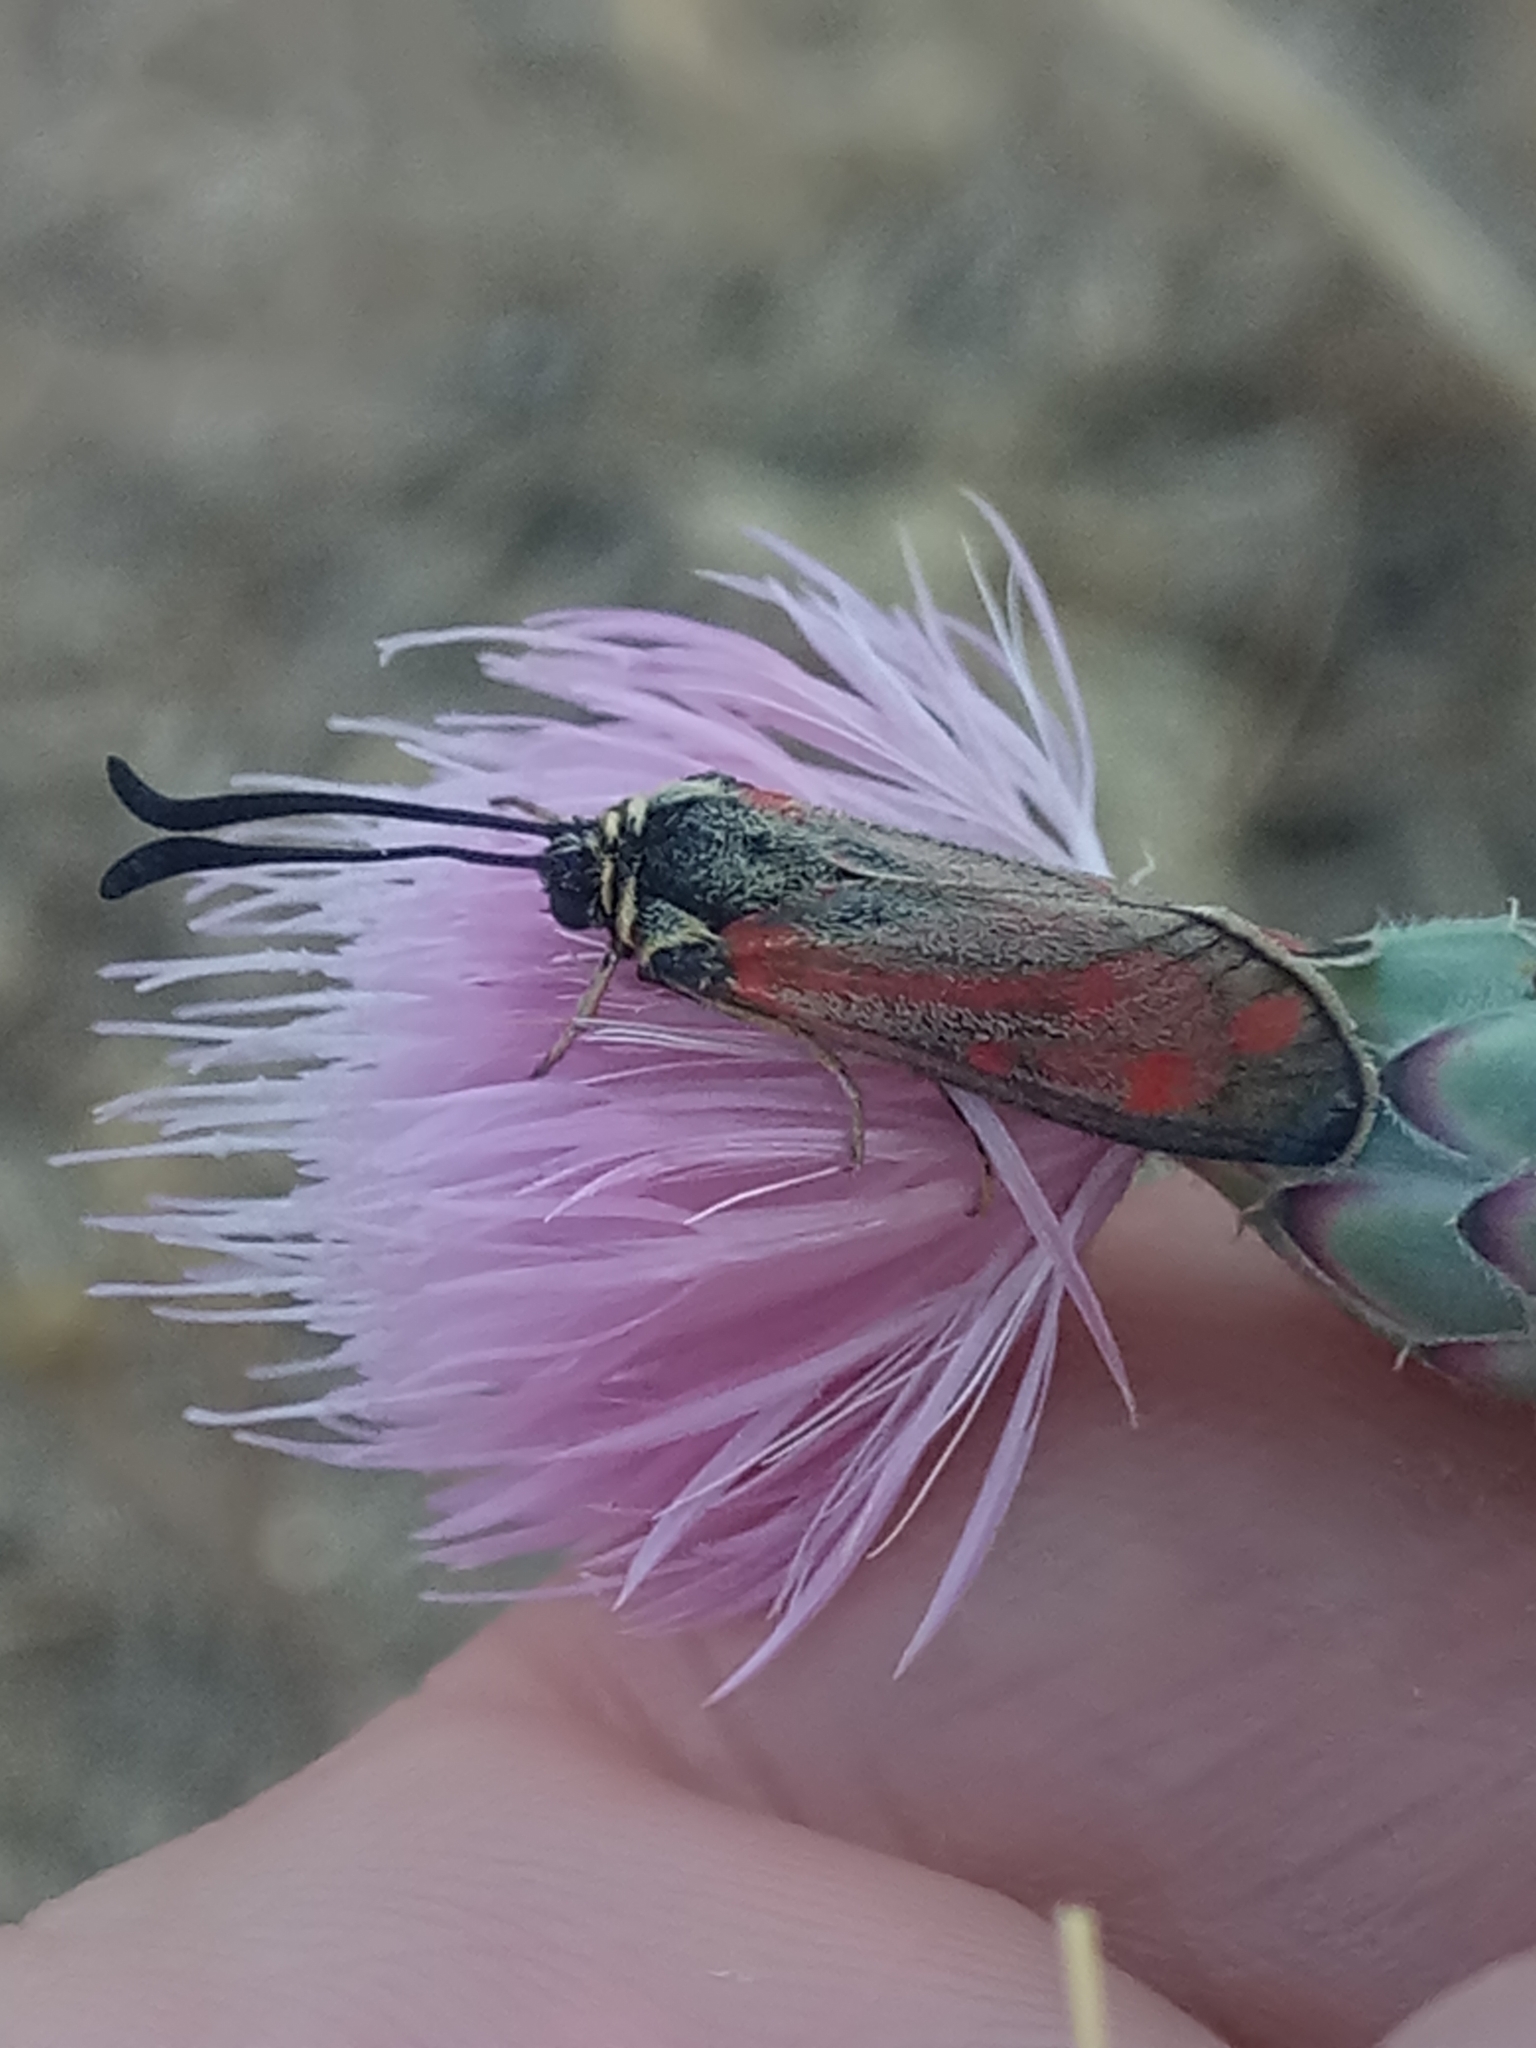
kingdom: Animalia
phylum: Arthropoda
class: Insecta
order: Lepidoptera
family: Zygaenidae
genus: Zygaena
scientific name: Zygaena favonia
